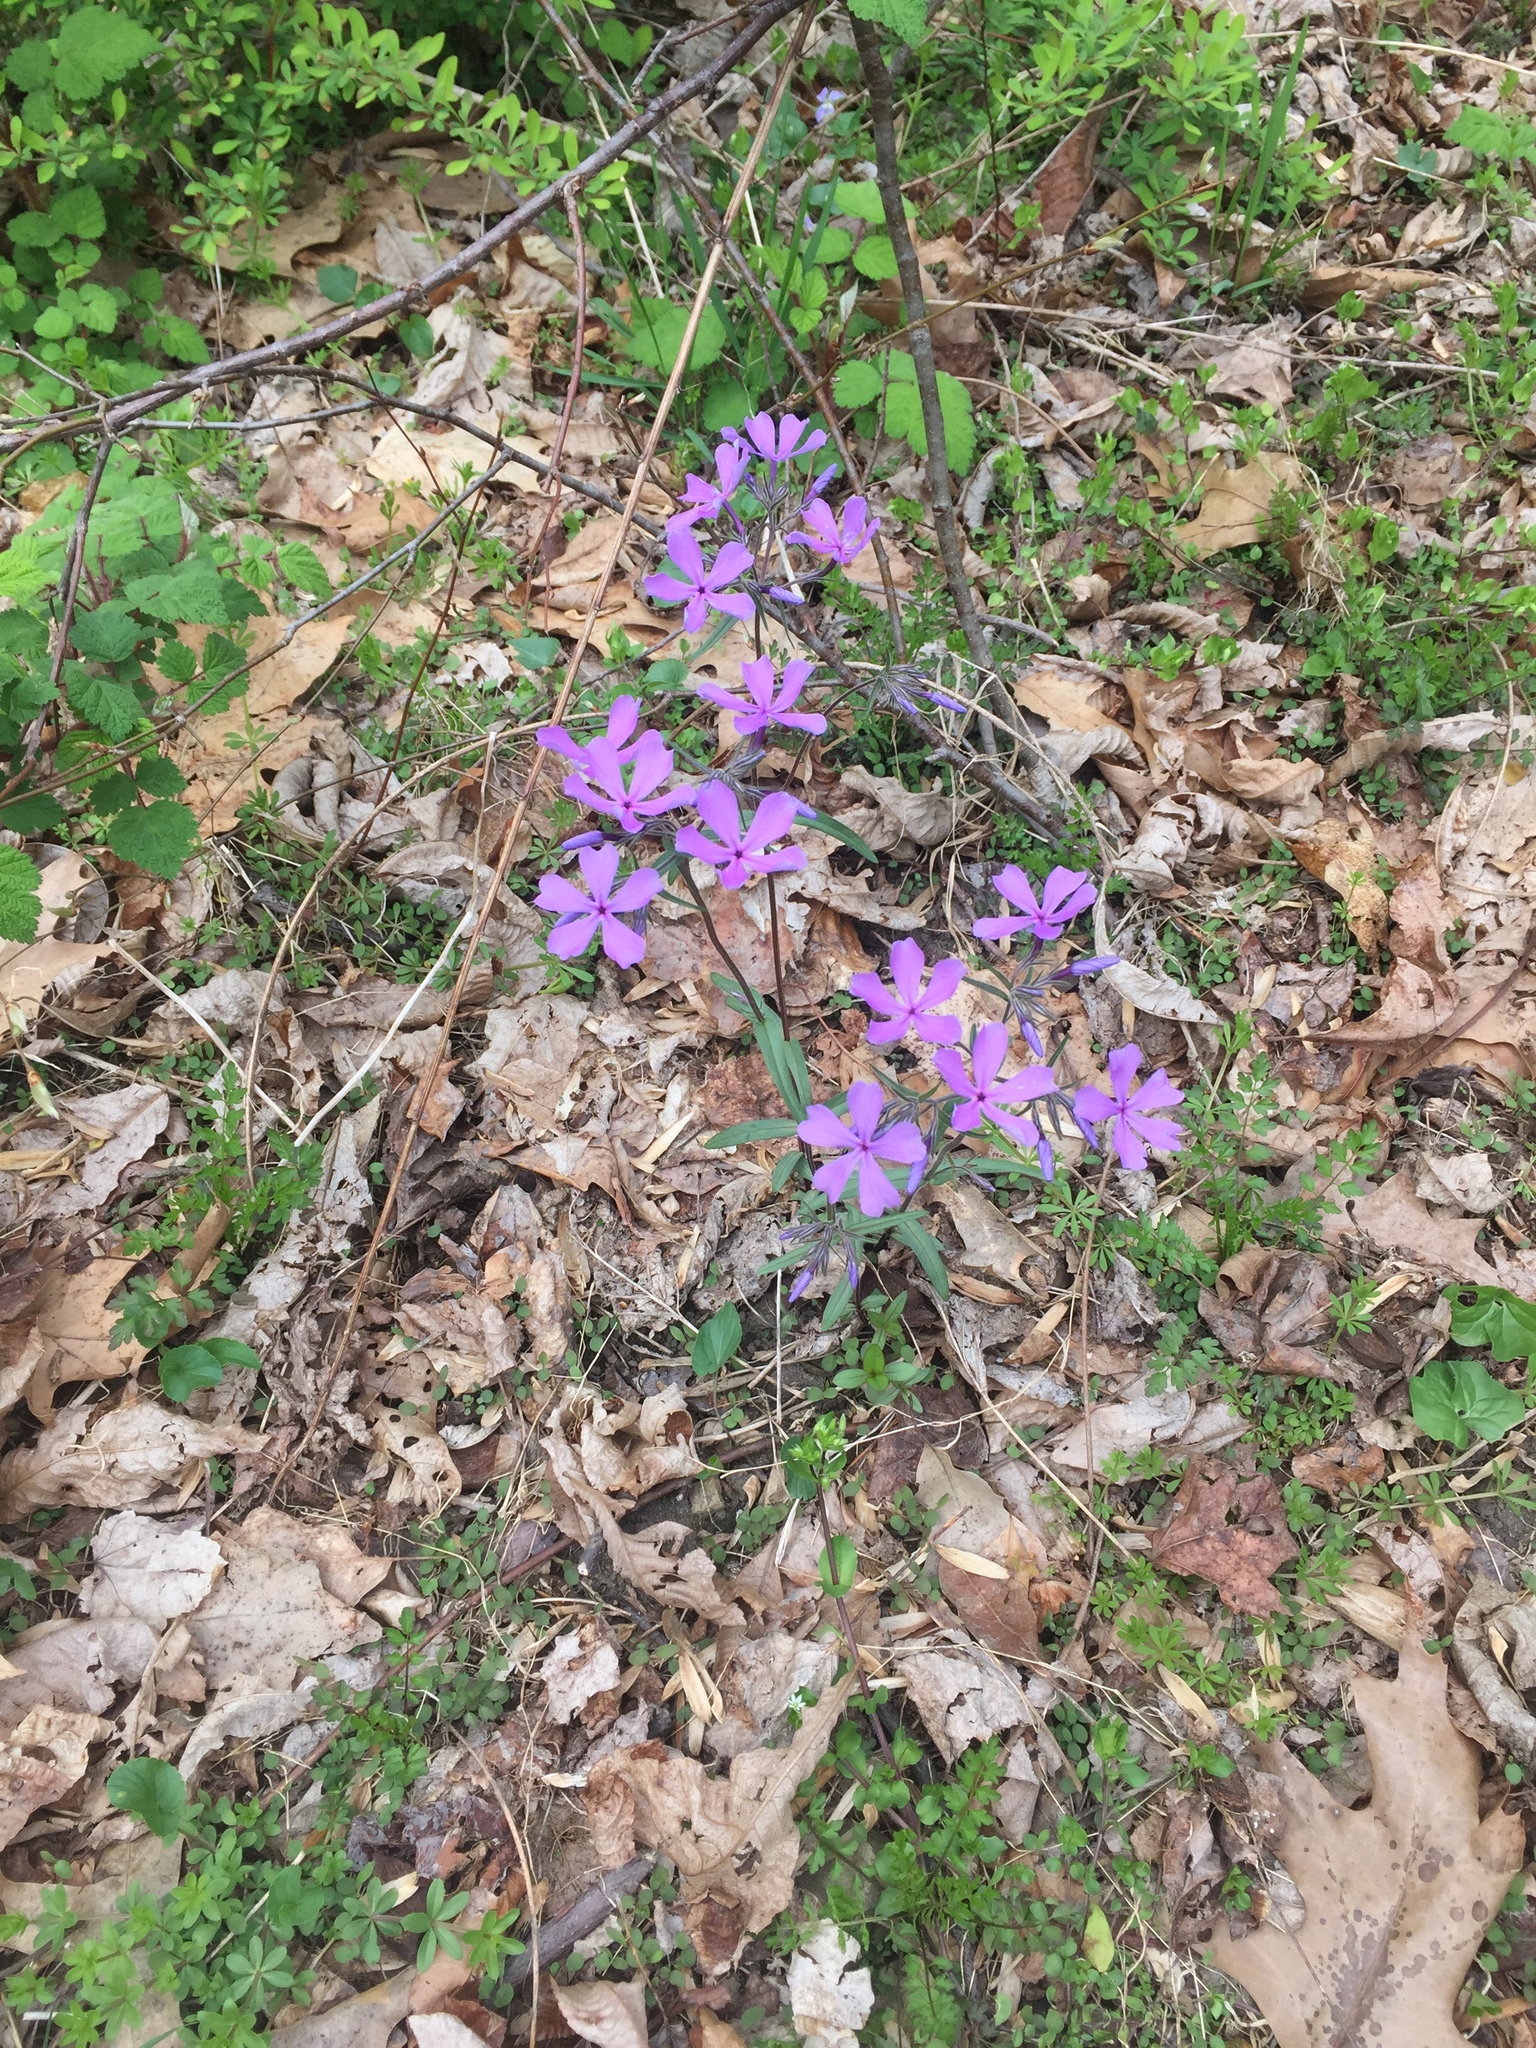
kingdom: Plantae
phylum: Tracheophyta
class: Magnoliopsida
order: Ericales
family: Polemoniaceae
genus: Phlox
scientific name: Phlox divaricata
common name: Blue phlox
